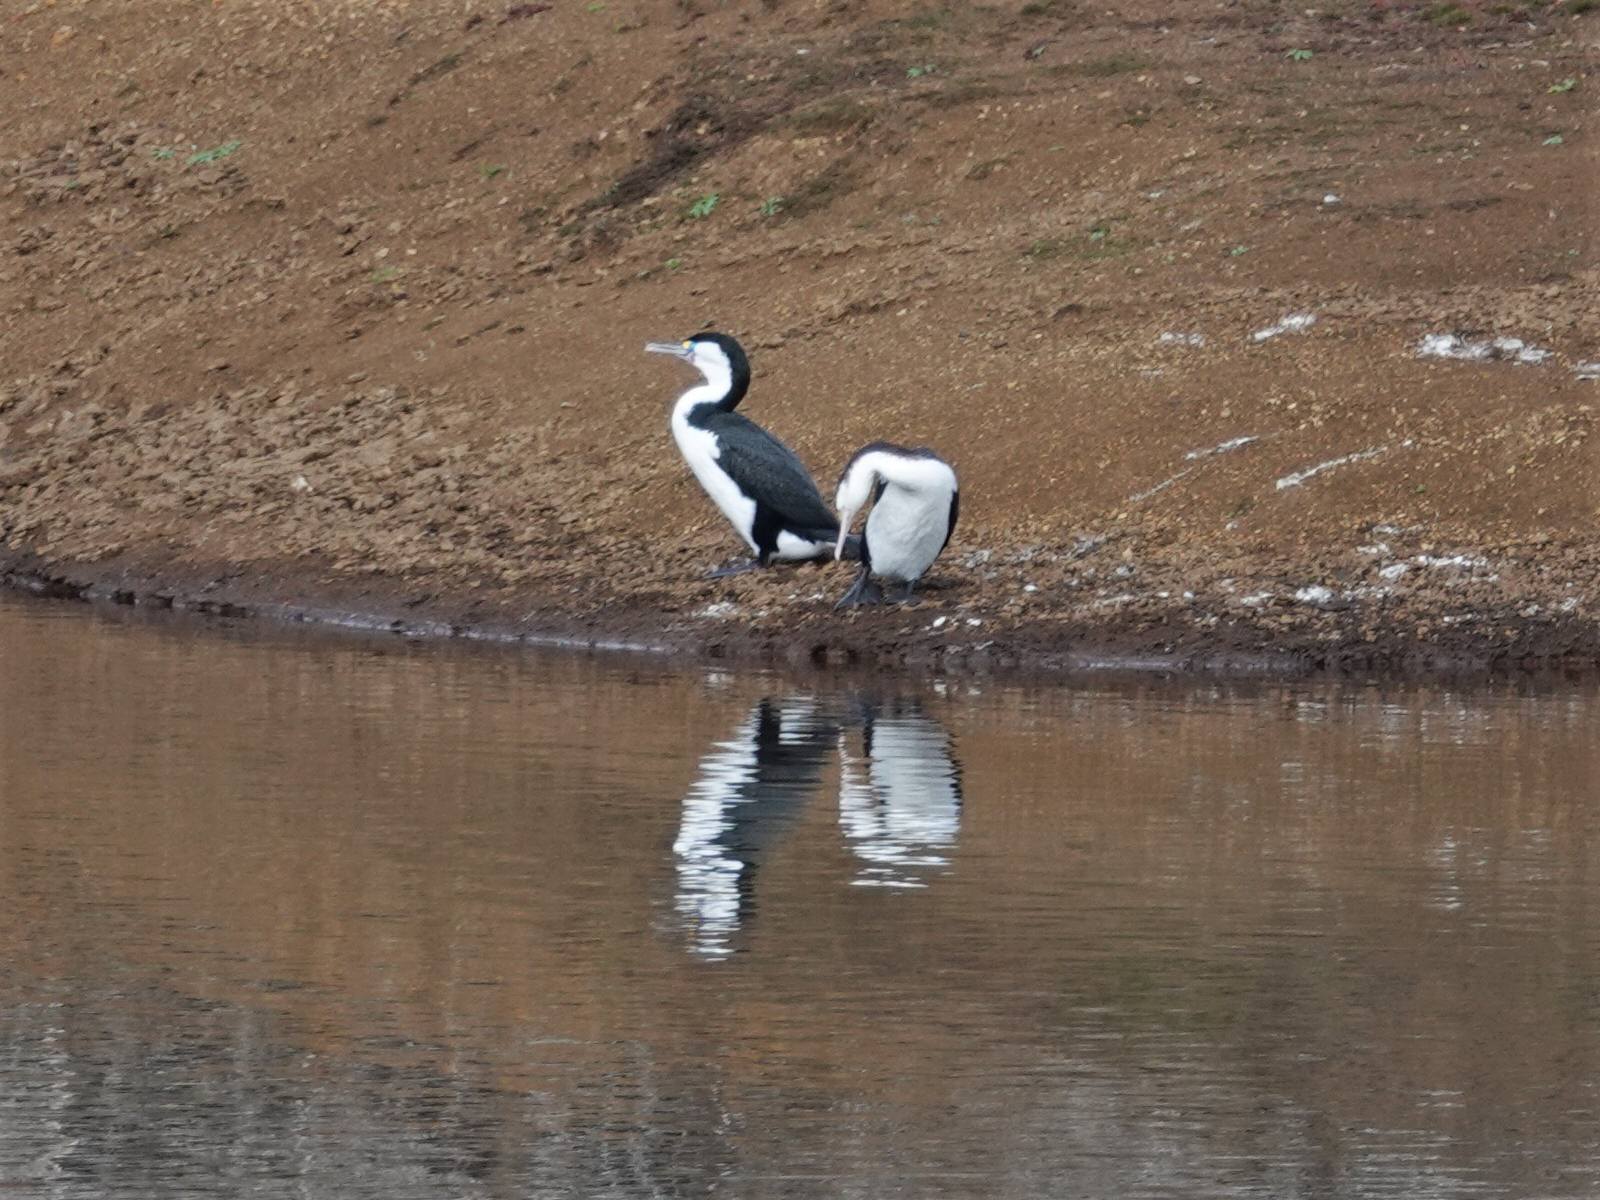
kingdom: Animalia
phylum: Chordata
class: Aves
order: Suliformes
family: Phalacrocoracidae
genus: Phalacrocorax
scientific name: Phalacrocorax varius
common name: Pied cormorant
